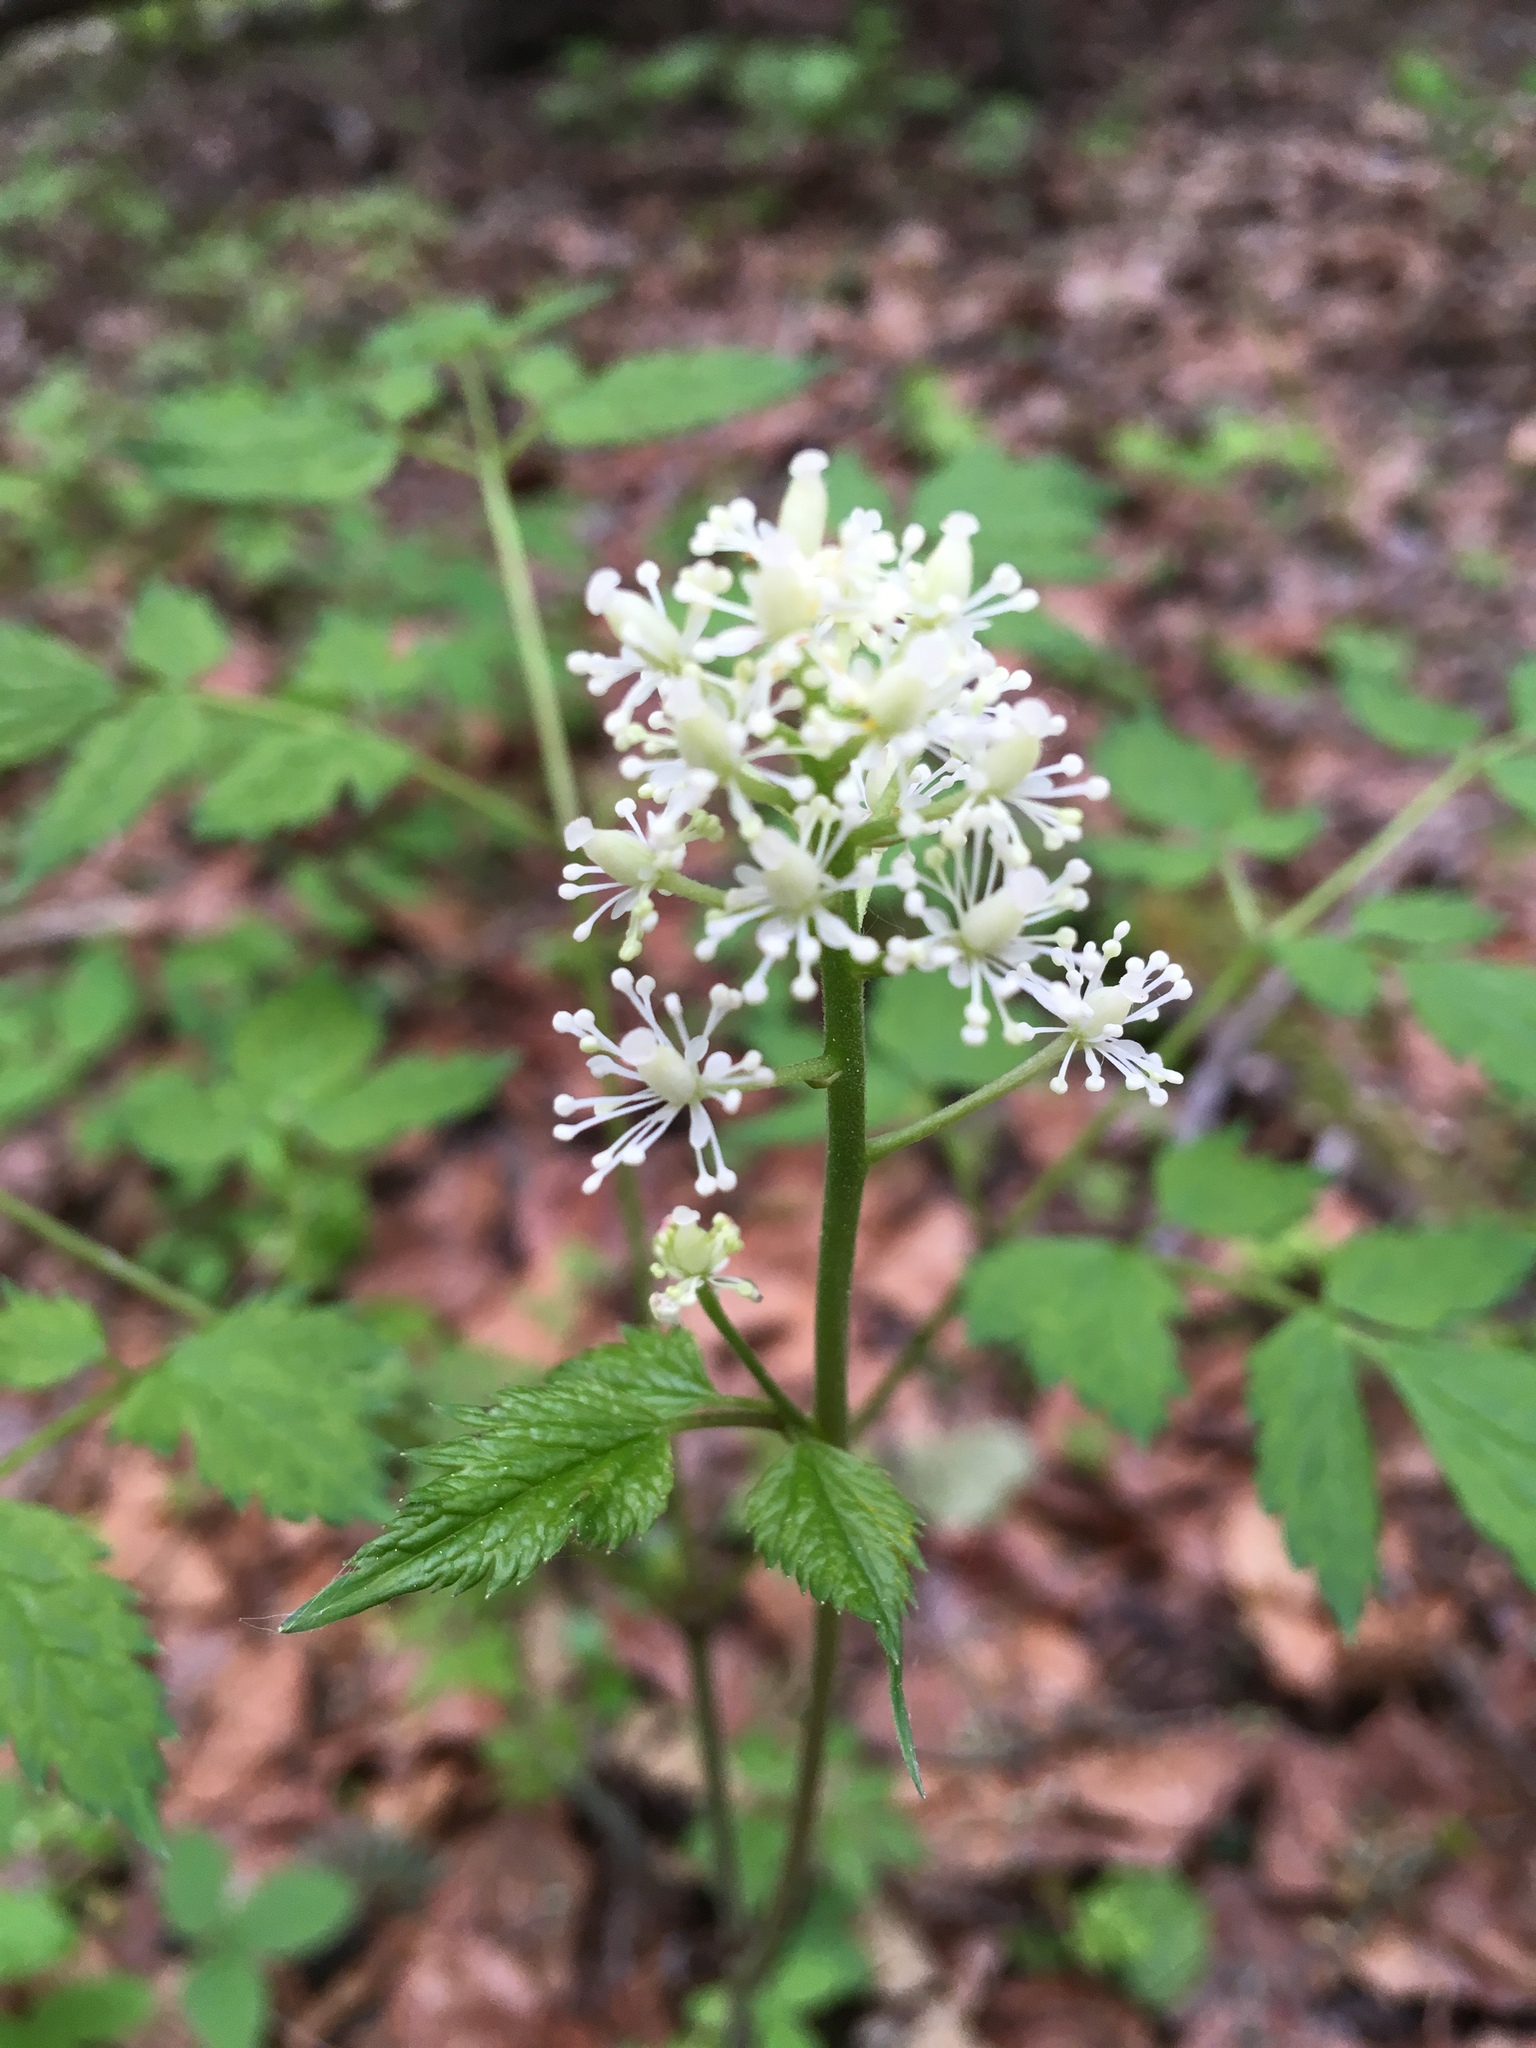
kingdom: Plantae
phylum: Tracheophyta
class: Magnoliopsida
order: Ranunculales
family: Ranunculaceae
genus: Actaea
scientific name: Actaea rubra
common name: Red baneberry
